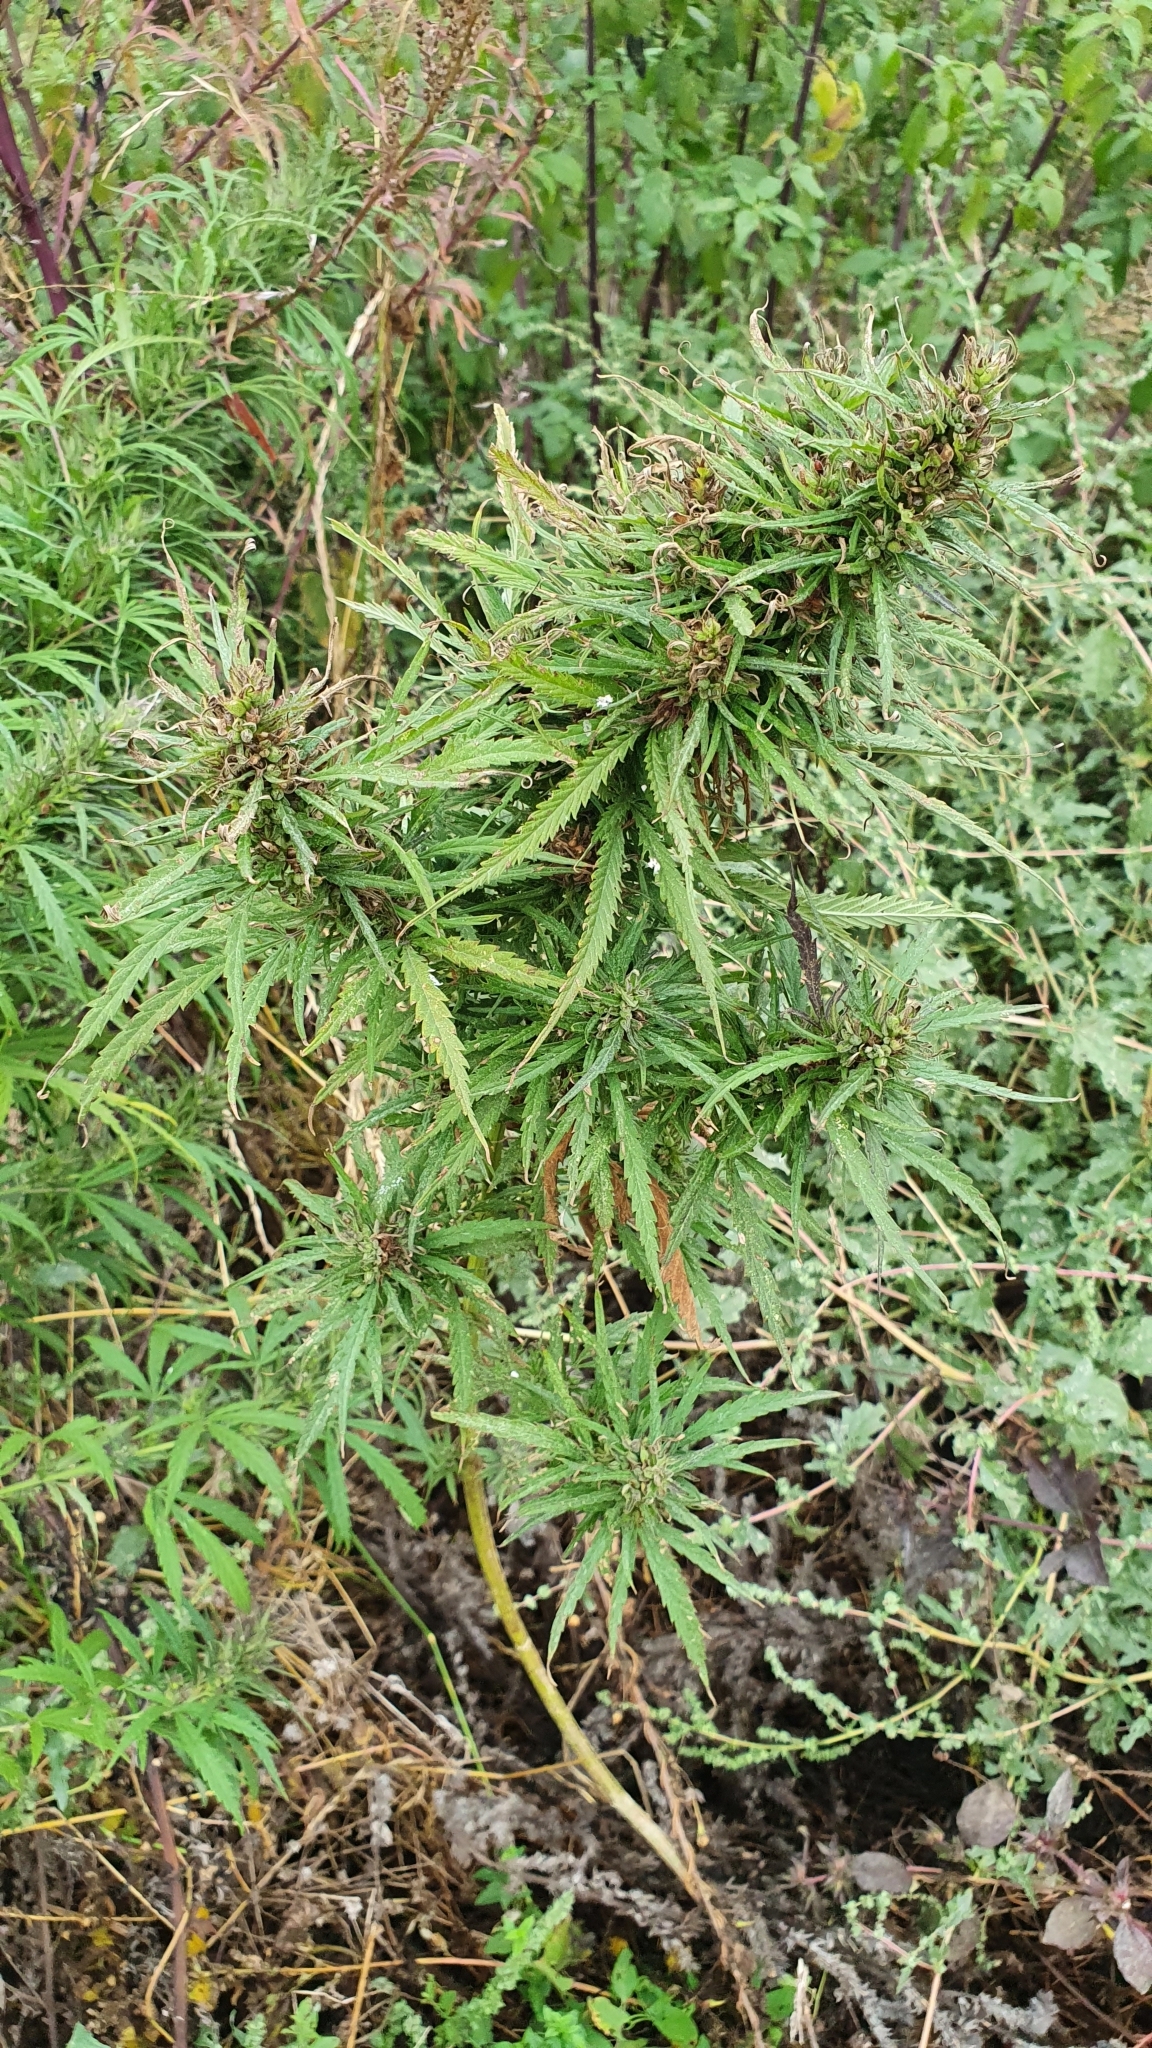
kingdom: Plantae
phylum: Tracheophyta
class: Magnoliopsida
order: Rosales
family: Cannabaceae
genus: Cannabis
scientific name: Cannabis sativa
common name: Hemp
